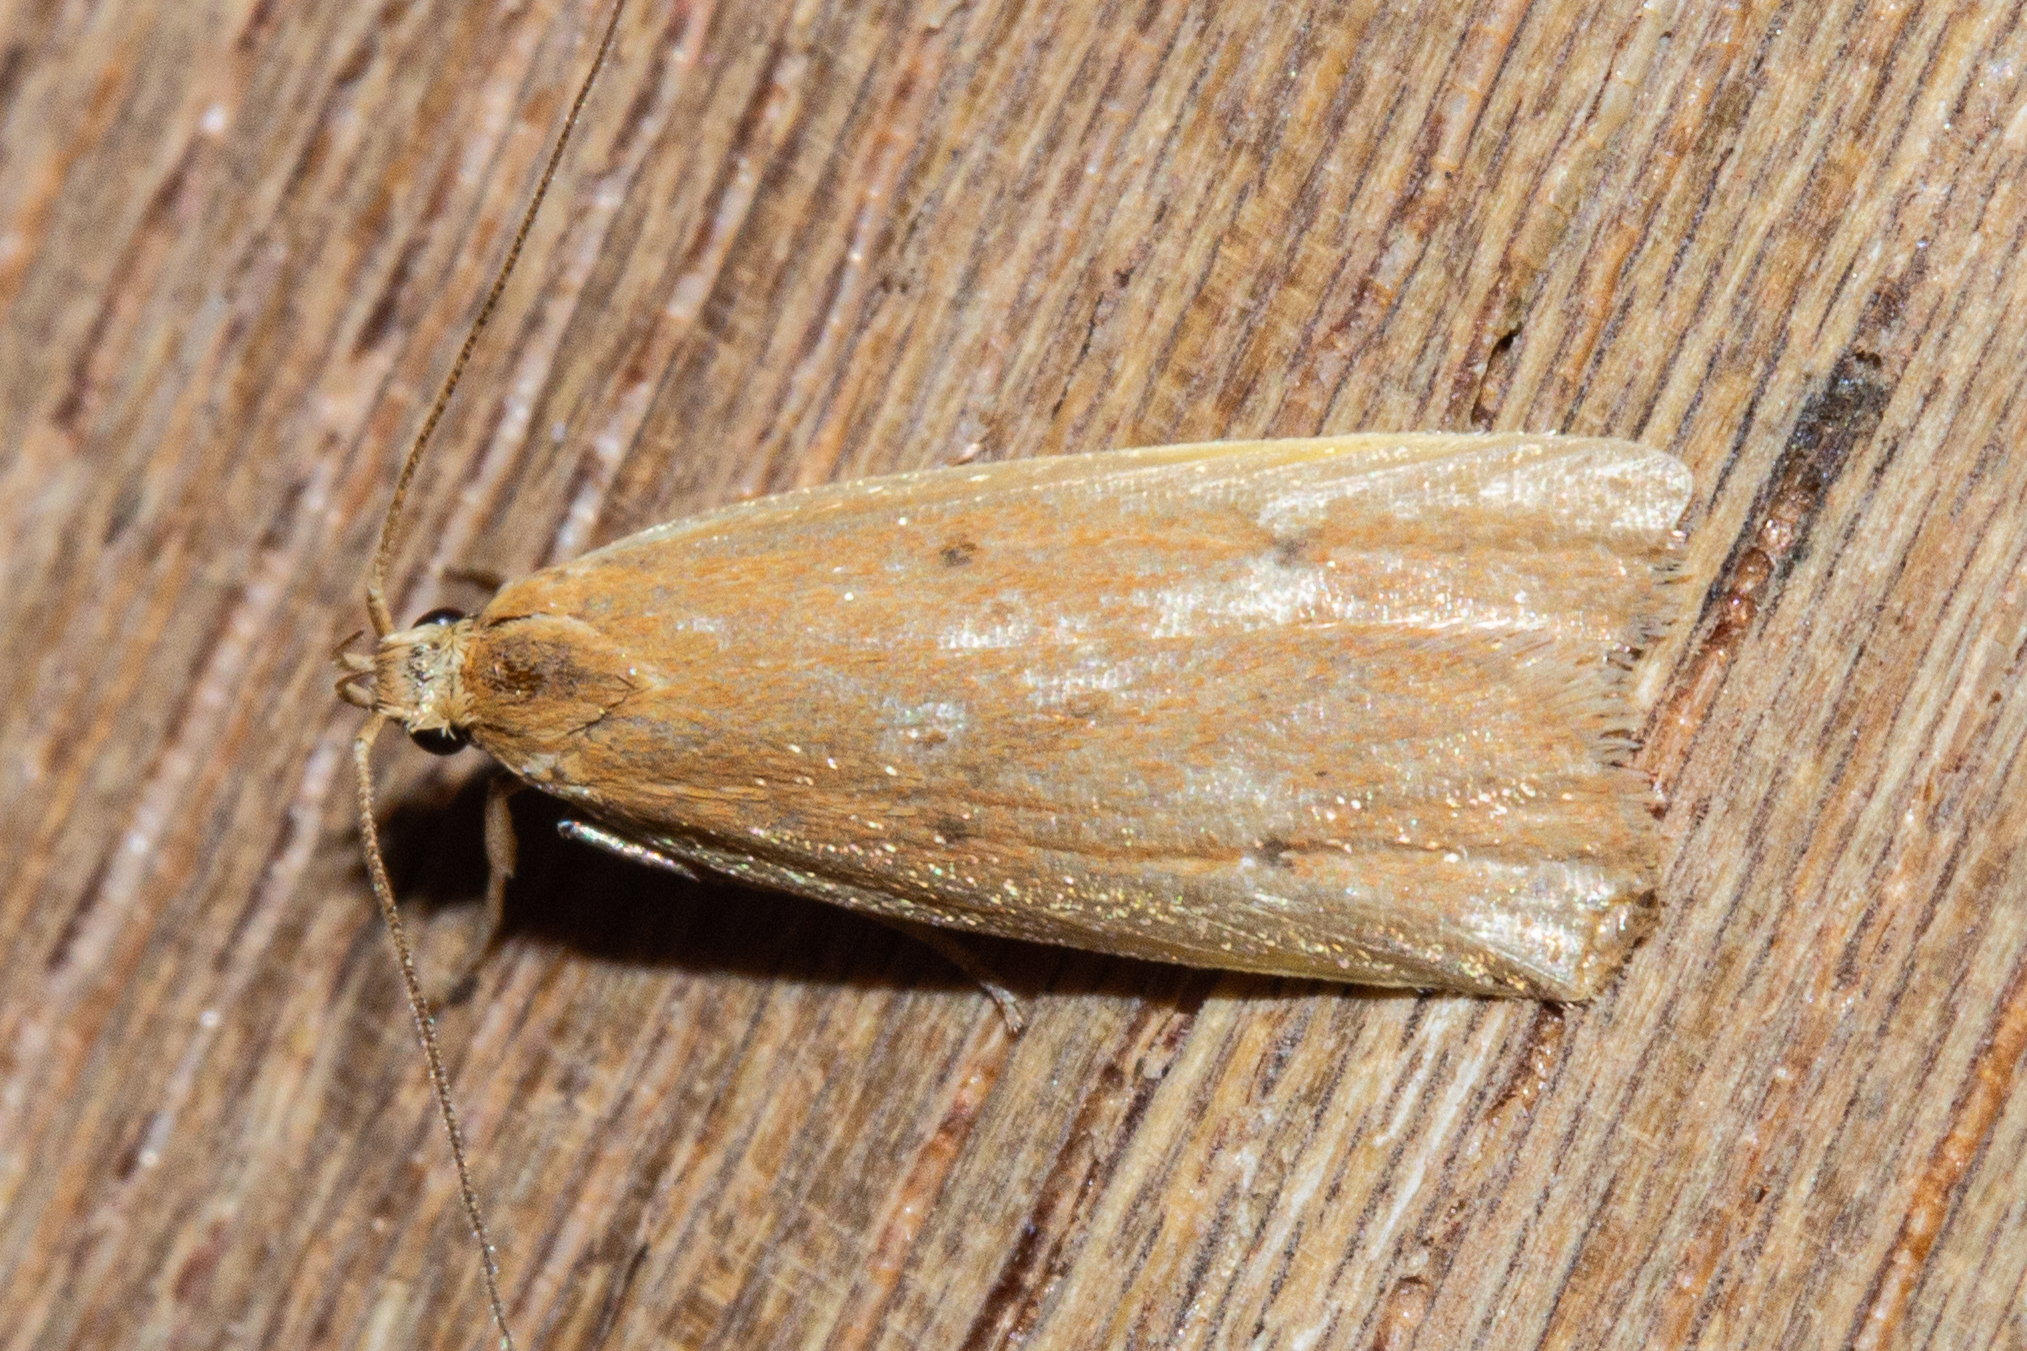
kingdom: Animalia
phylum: Arthropoda
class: Insecta
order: Lepidoptera
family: Oecophoridae
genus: Gymnobathra
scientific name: Gymnobathra sarcoxantha
